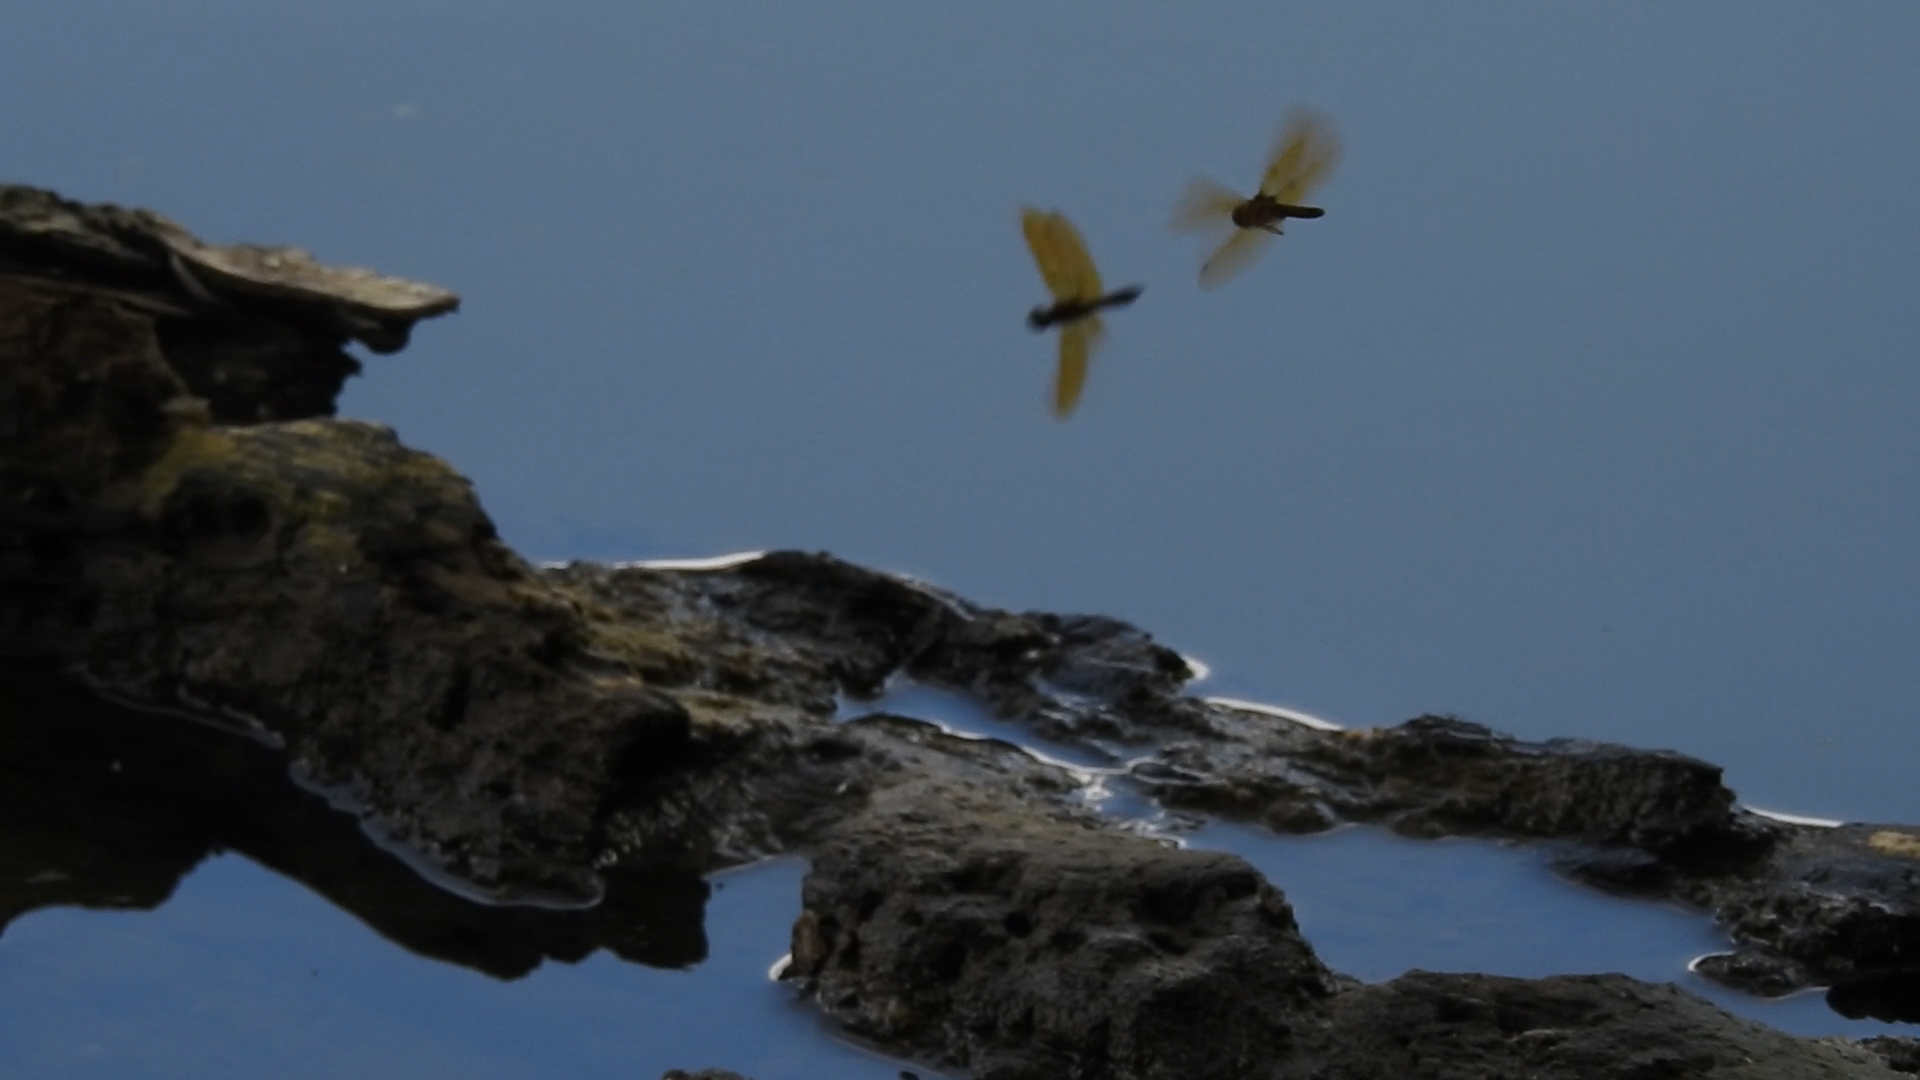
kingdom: Animalia
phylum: Arthropoda
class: Insecta
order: Odonata
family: Libellulidae
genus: Perithemis
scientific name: Perithemis tenera
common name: Eastern amberwing
